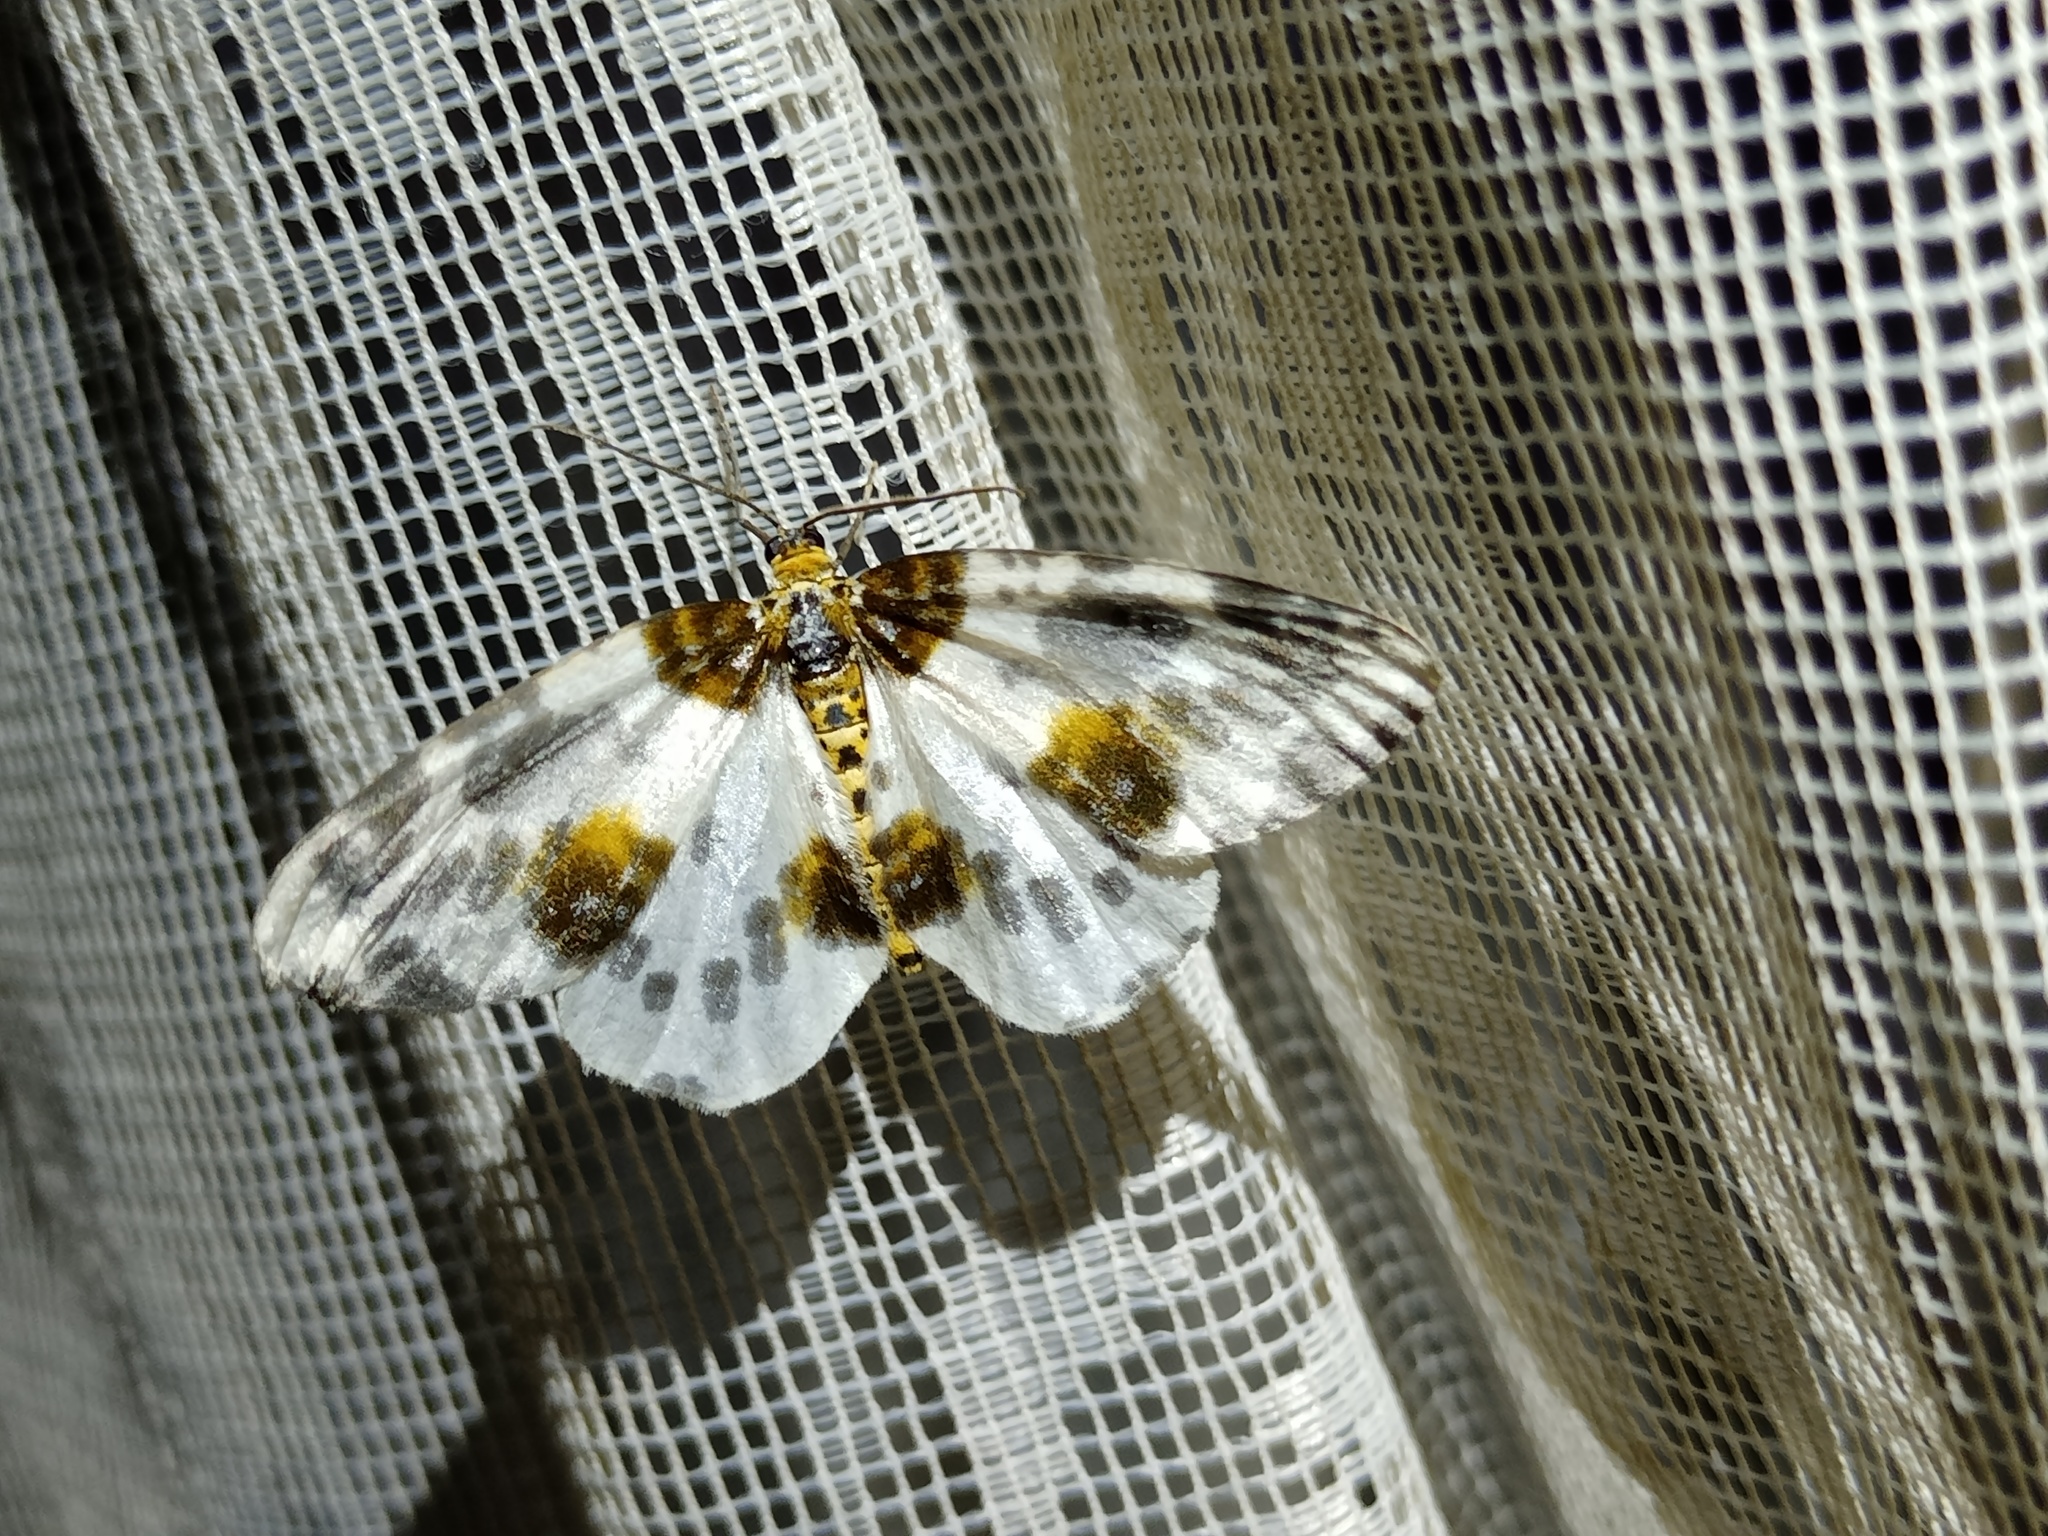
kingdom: Animalia
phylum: Arthropoda
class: Insecta
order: Lepidoptera
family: Geometridae
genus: Abraxas
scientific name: Abraxas sylvata
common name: Clouded magpie
